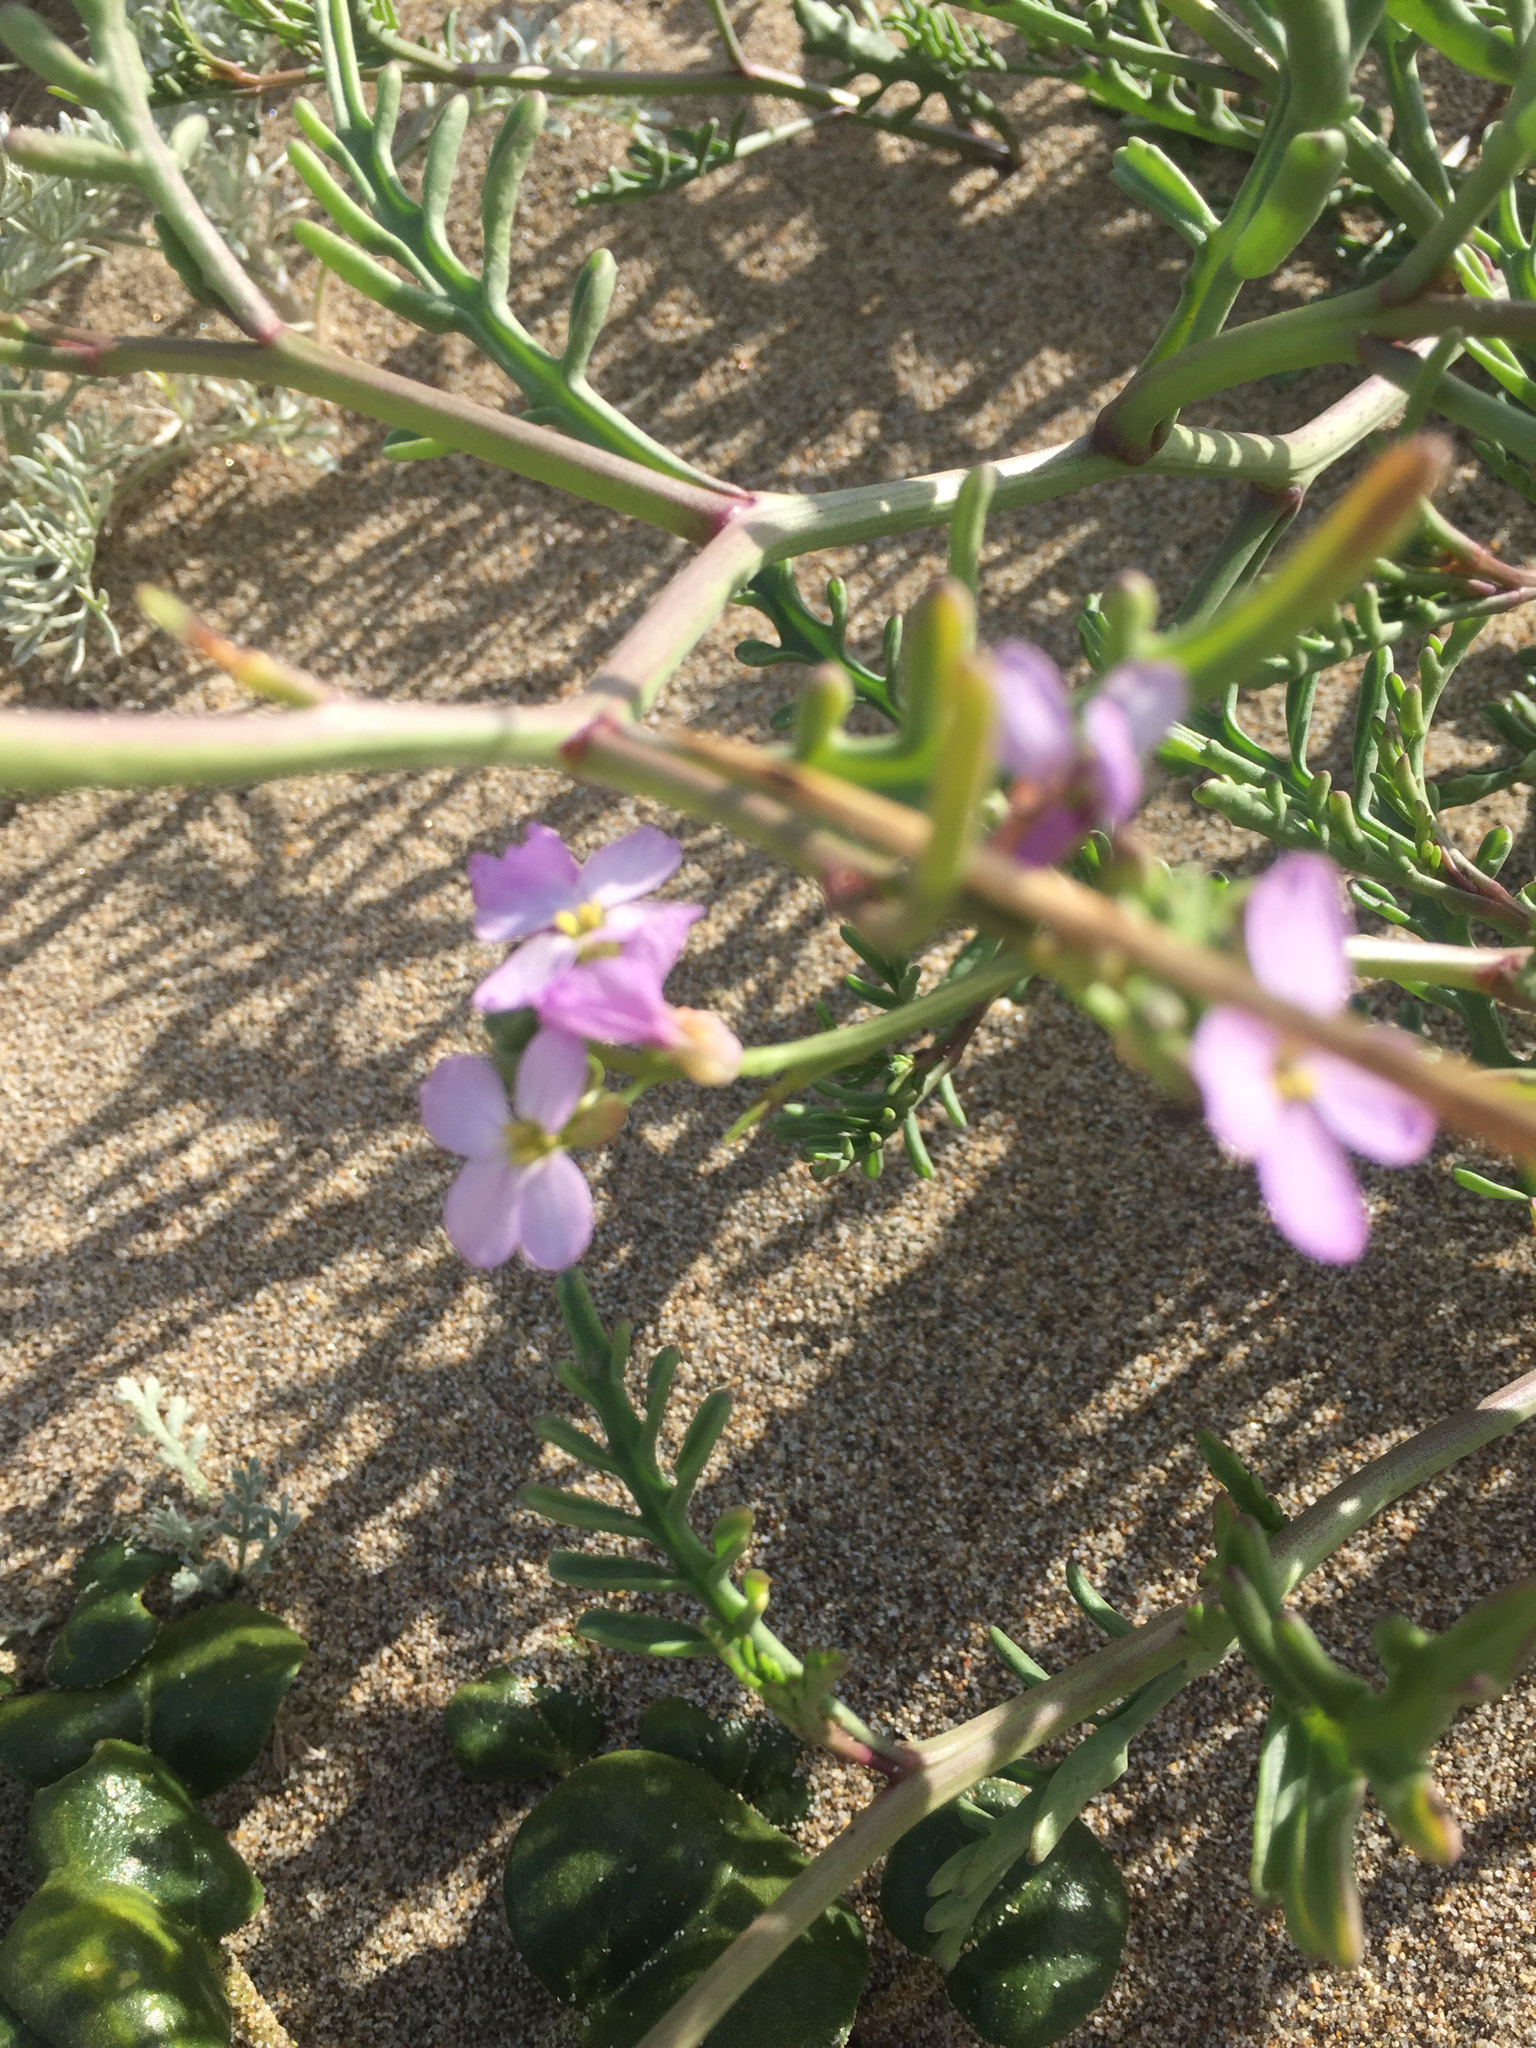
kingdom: Plantae
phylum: Tracheophyta
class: Magnoliopsida
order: Brassicales
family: Brassicaceae
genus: Cakile
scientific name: Cakile maritima
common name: Sea rocket
